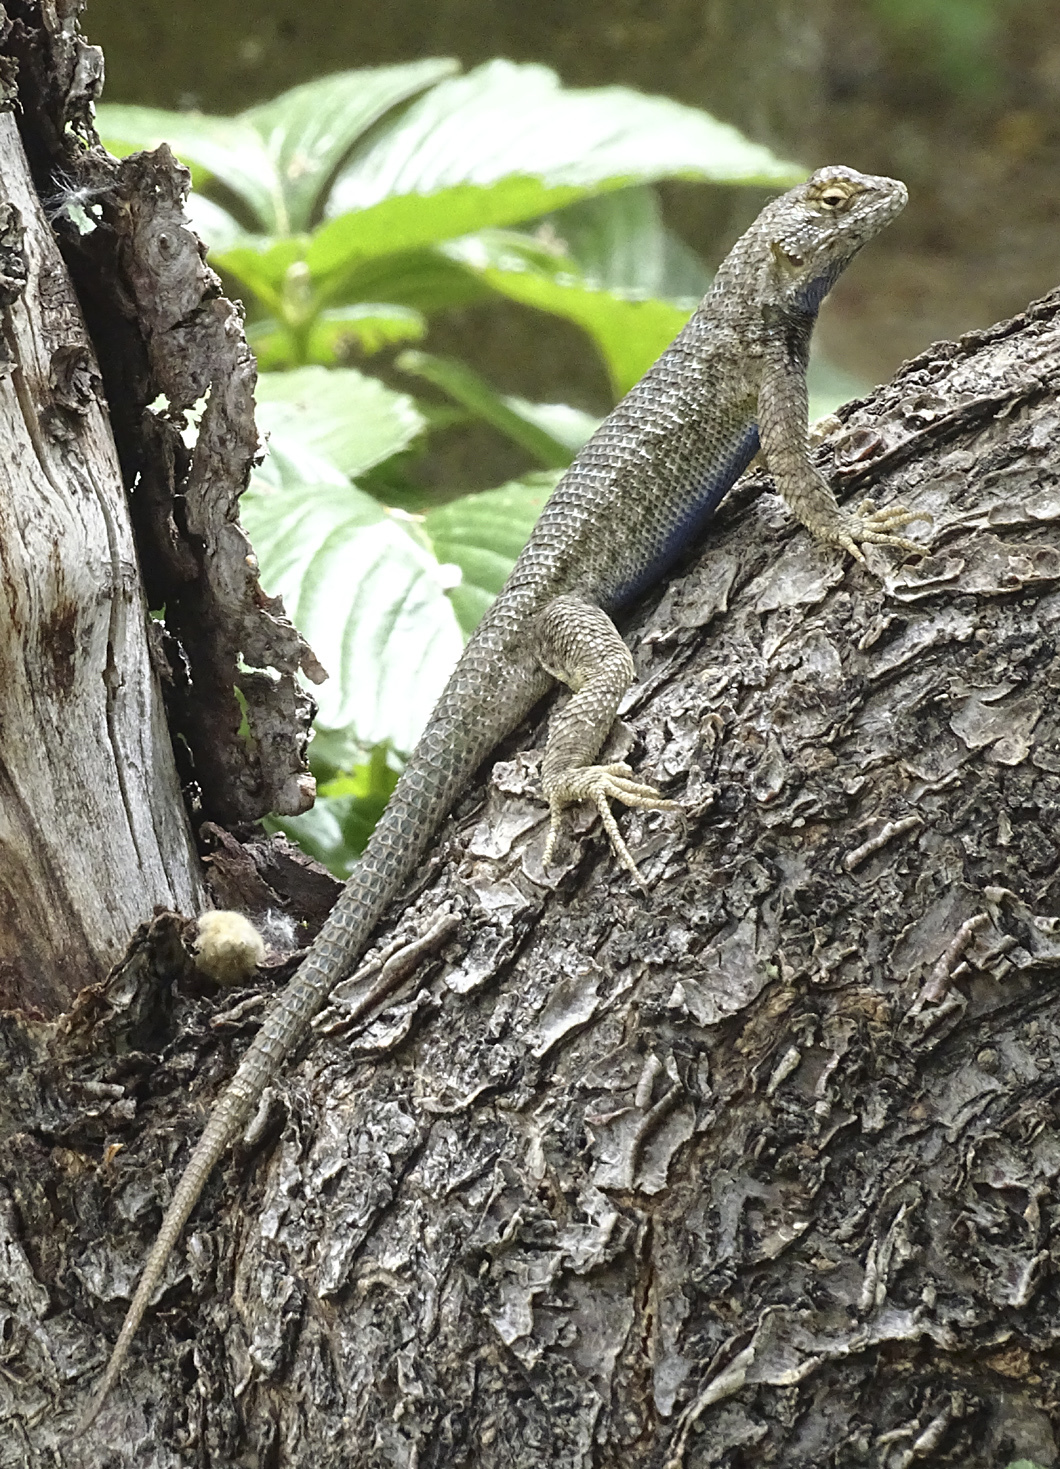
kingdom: Animalia
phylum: Chordata
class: Squamata
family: Phrynosomatidae
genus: Sceloporus
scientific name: Sceloporus occidentalis
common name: Western fence lizard
